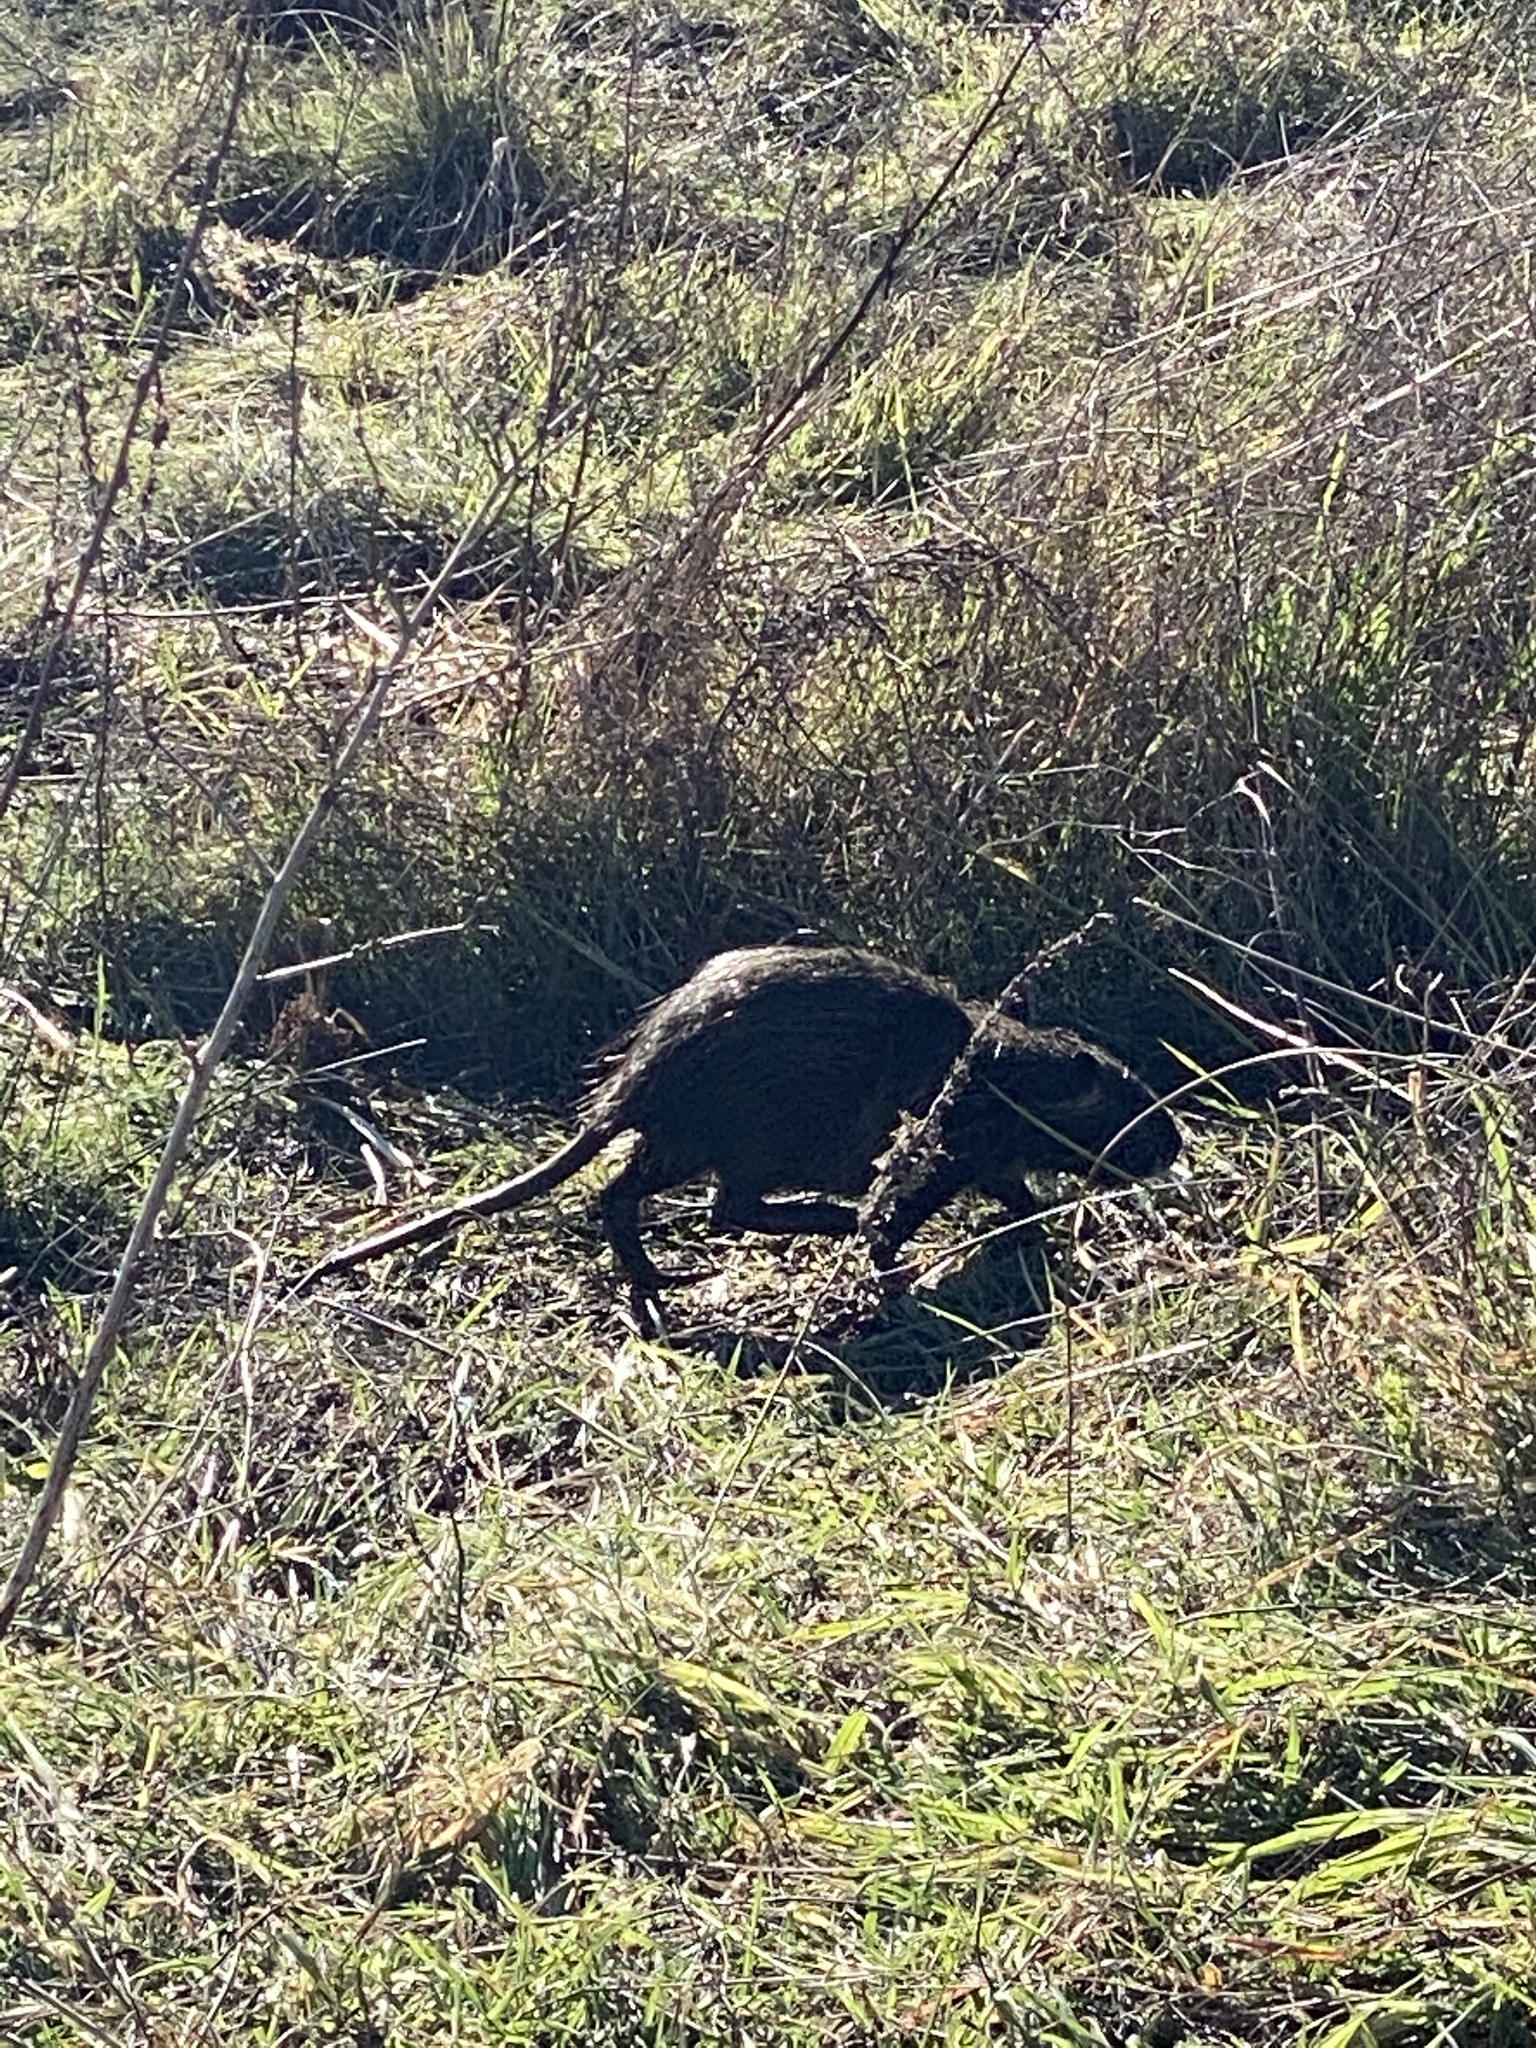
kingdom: Animalia
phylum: Chordata
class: Mammalia
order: Rodentia
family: Myocastoridae
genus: Myocastor
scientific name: Myocastor coypus
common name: Coypu
